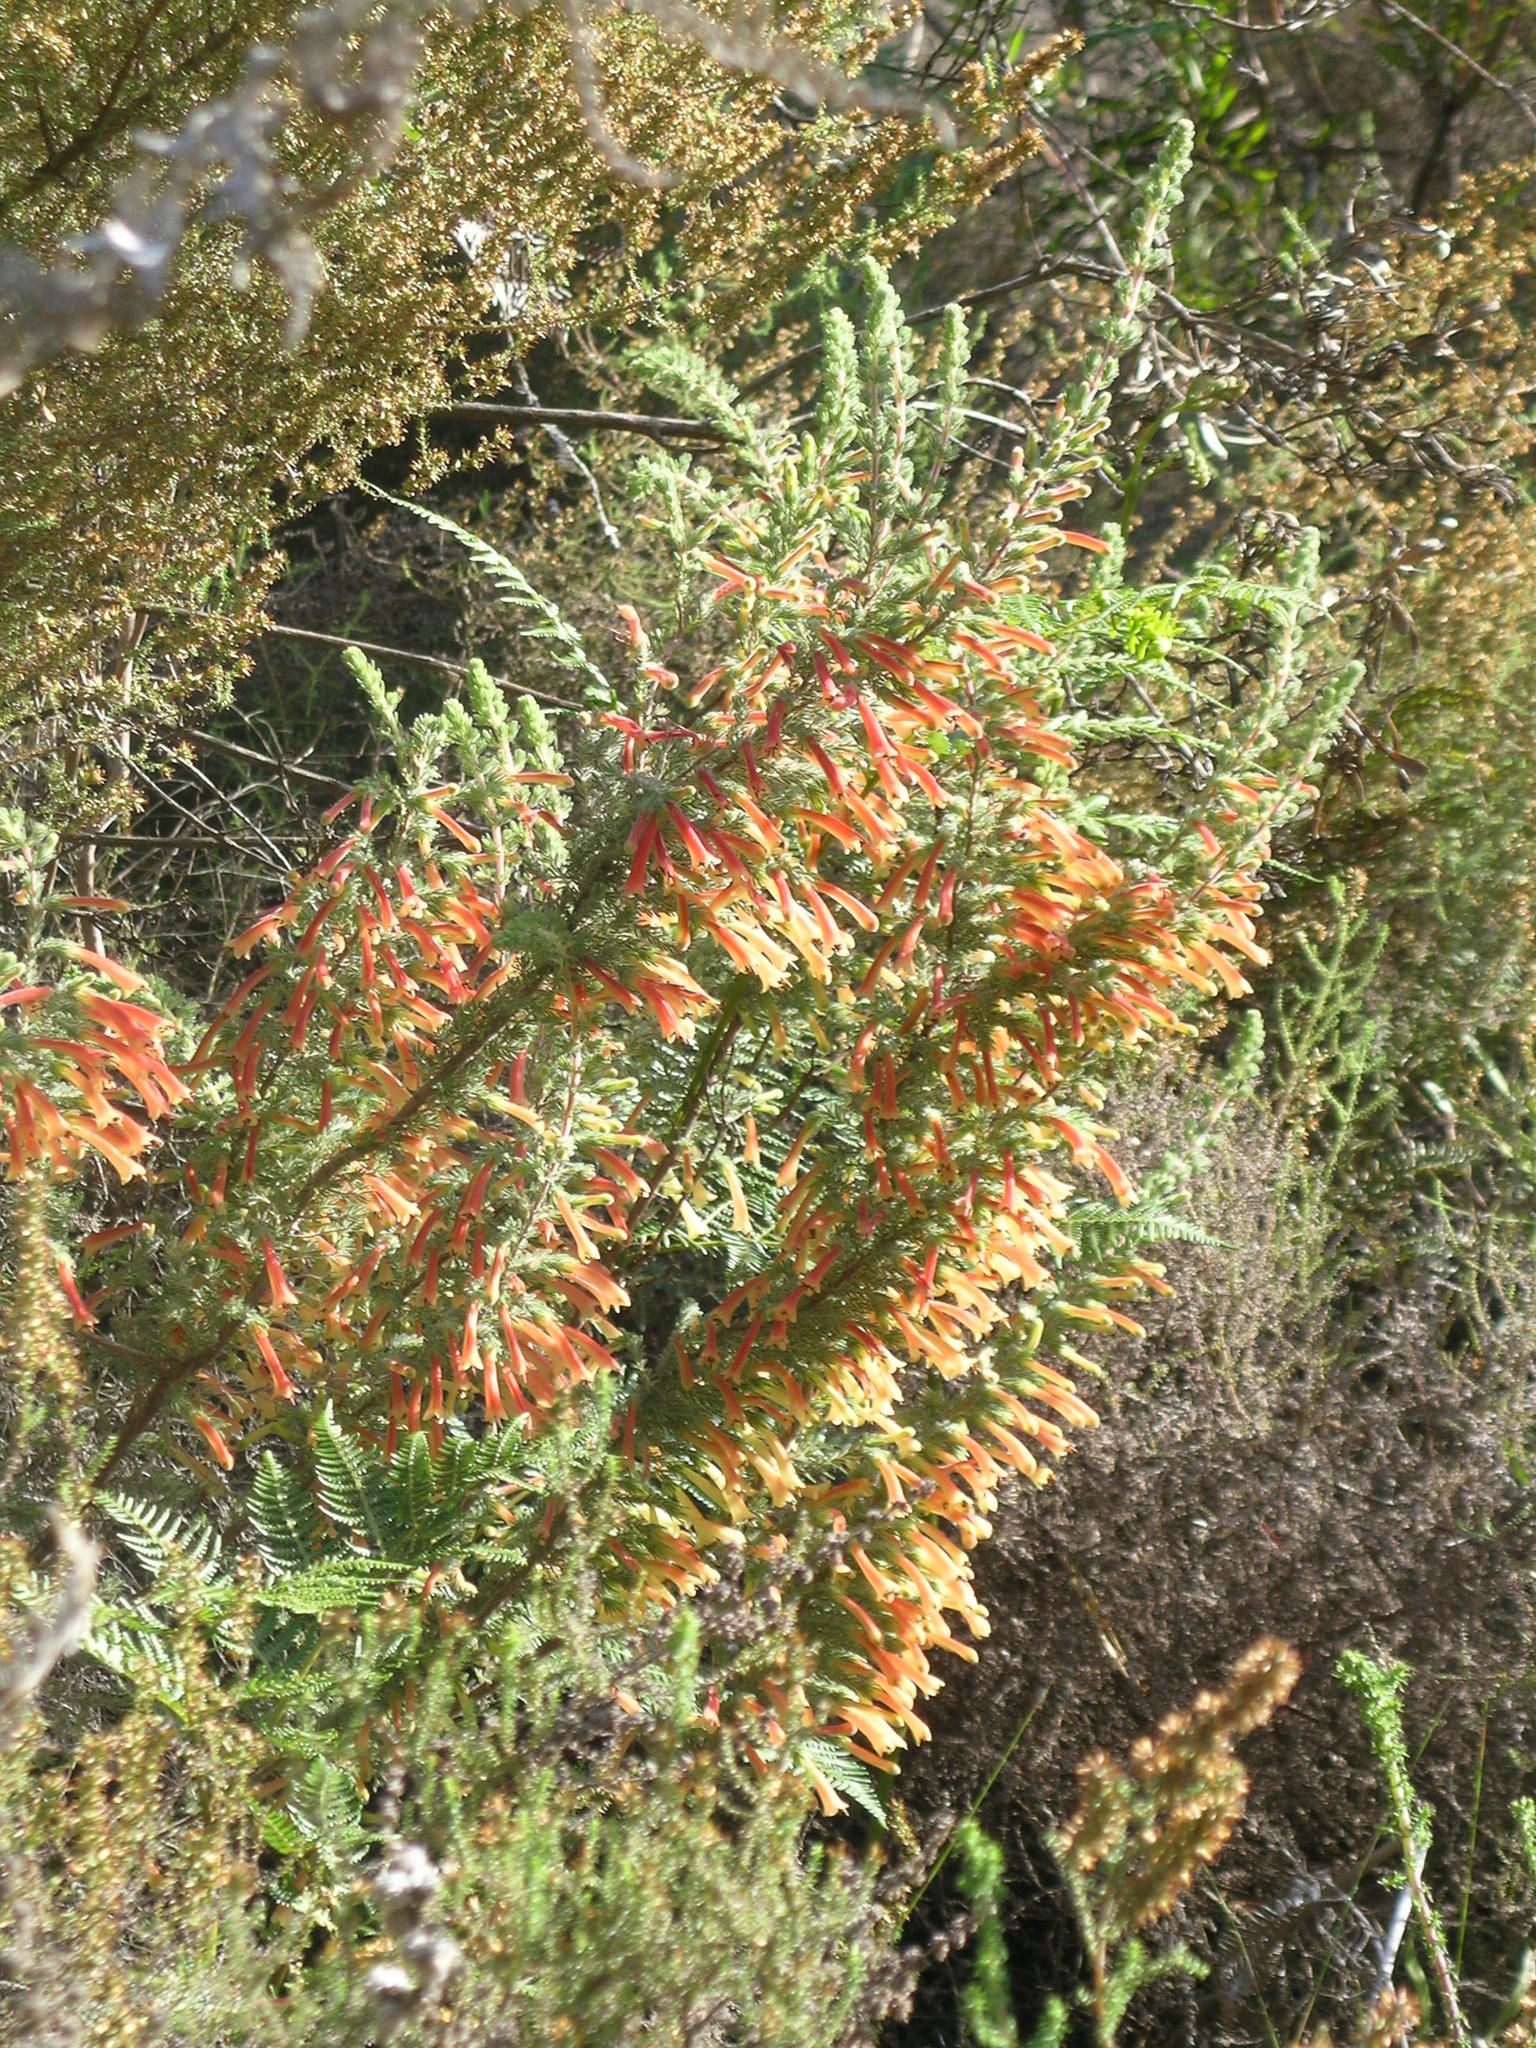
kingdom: Plantae
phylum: Tracheophyta
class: Magnoliopsida
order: Ericales
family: Ericaceae
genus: Erica
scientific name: Erica curviflora
